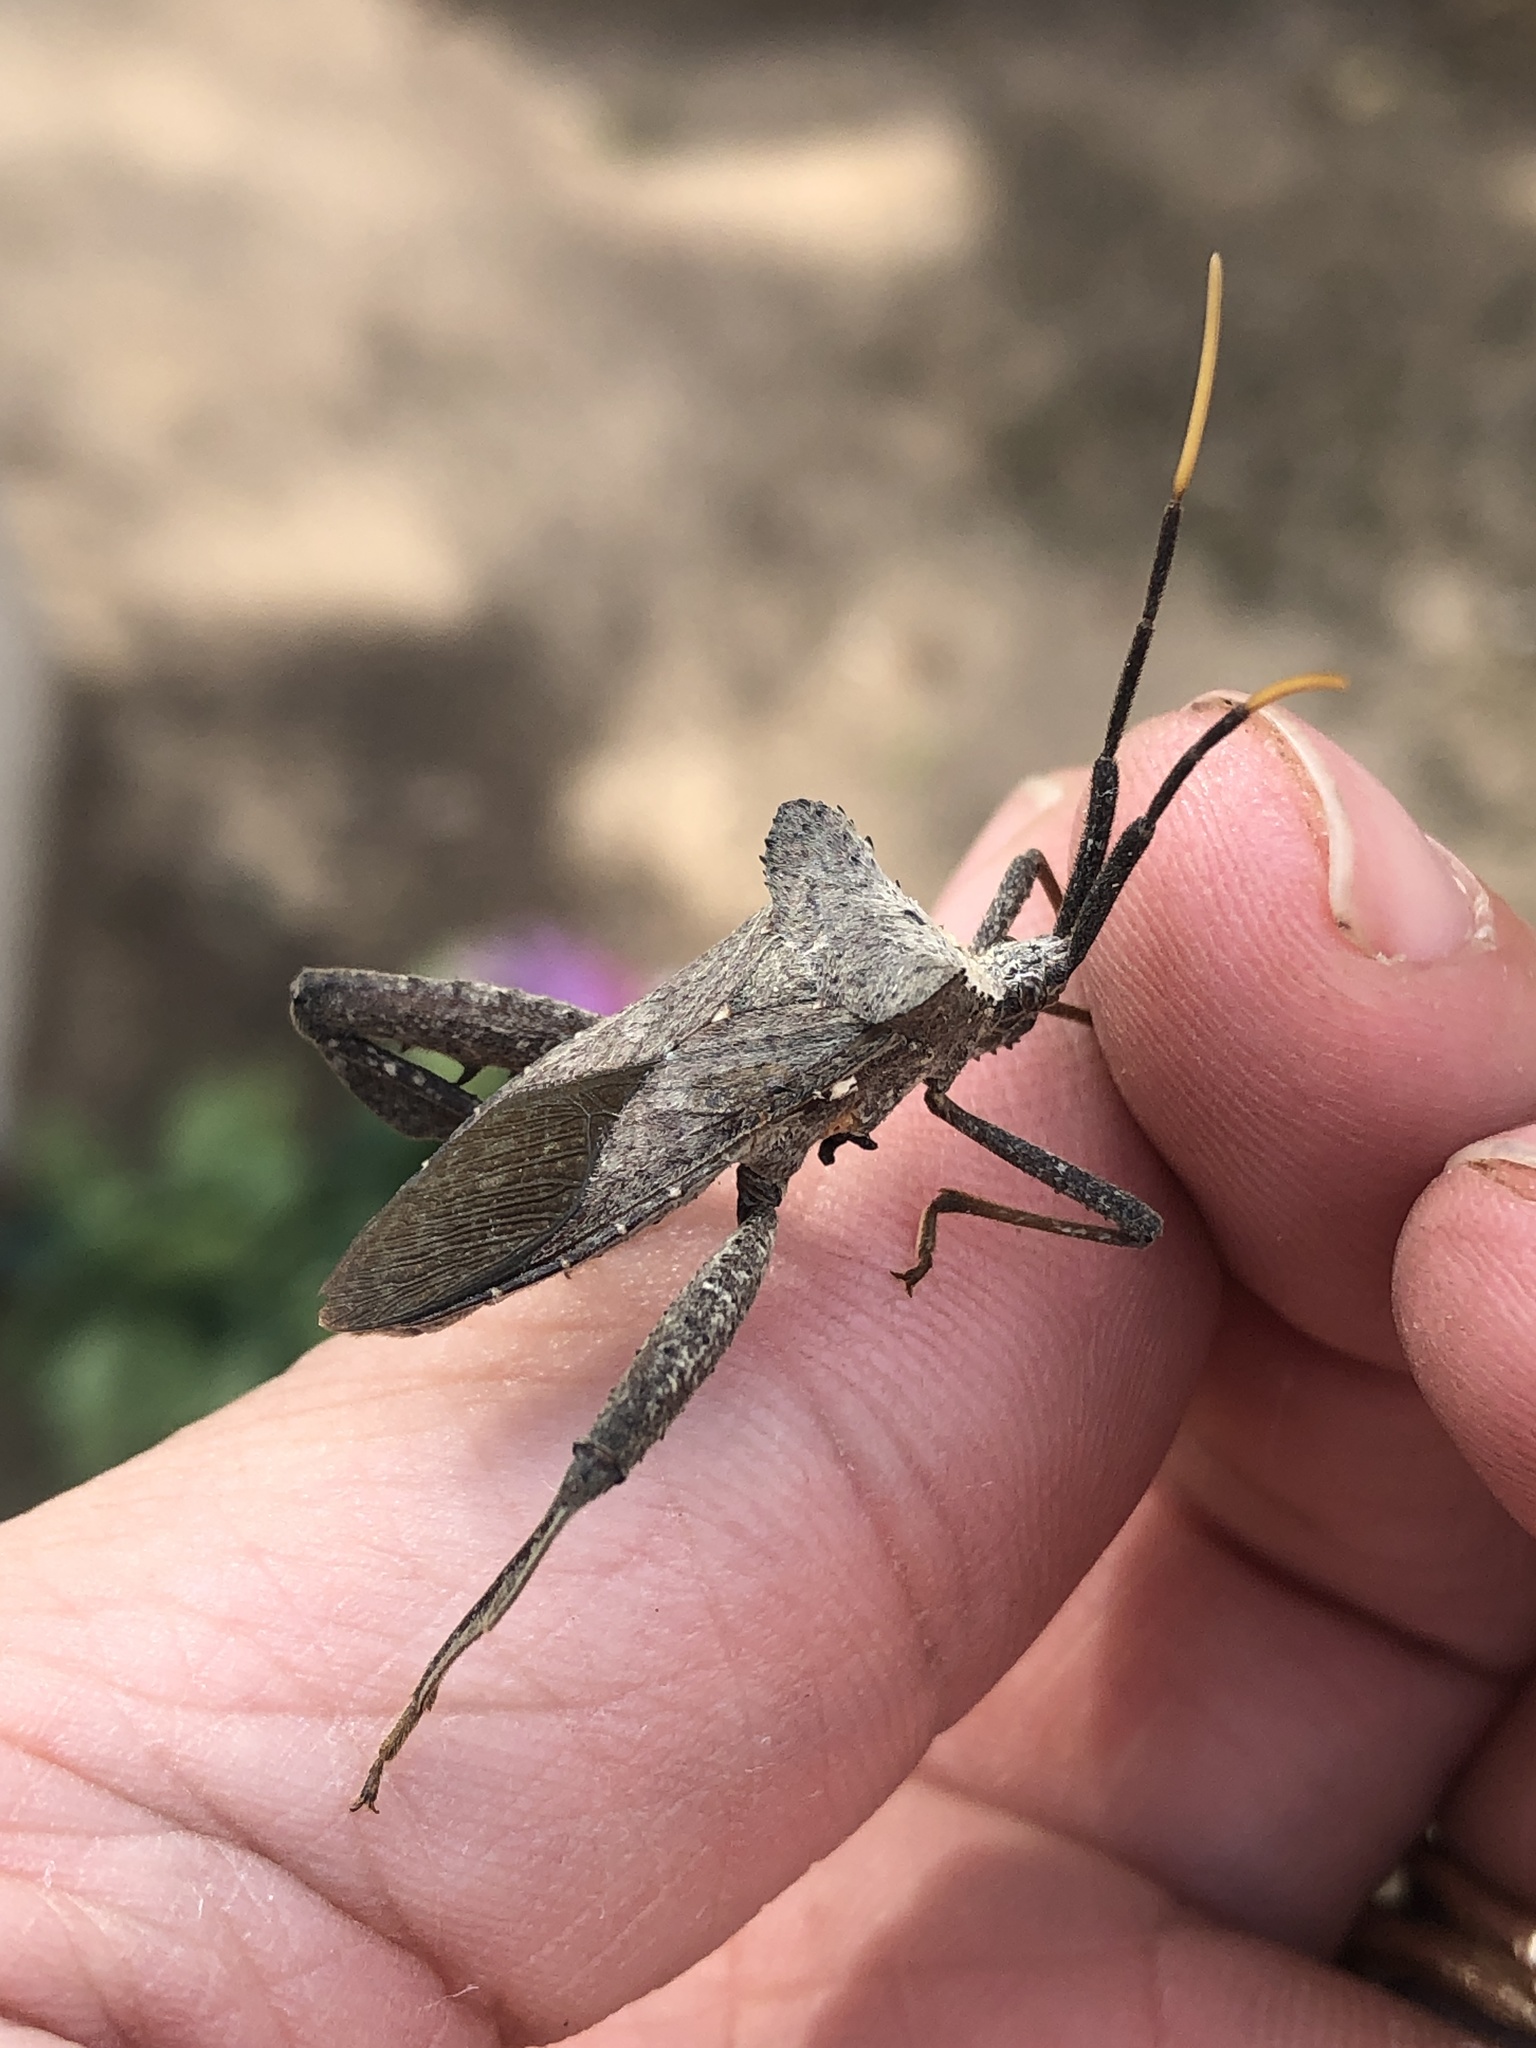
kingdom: Animalia
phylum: Arthropoda
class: Insecta
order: Hemiptera
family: Coreidae
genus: Acanthocephala
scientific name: Acanthocephala alata
